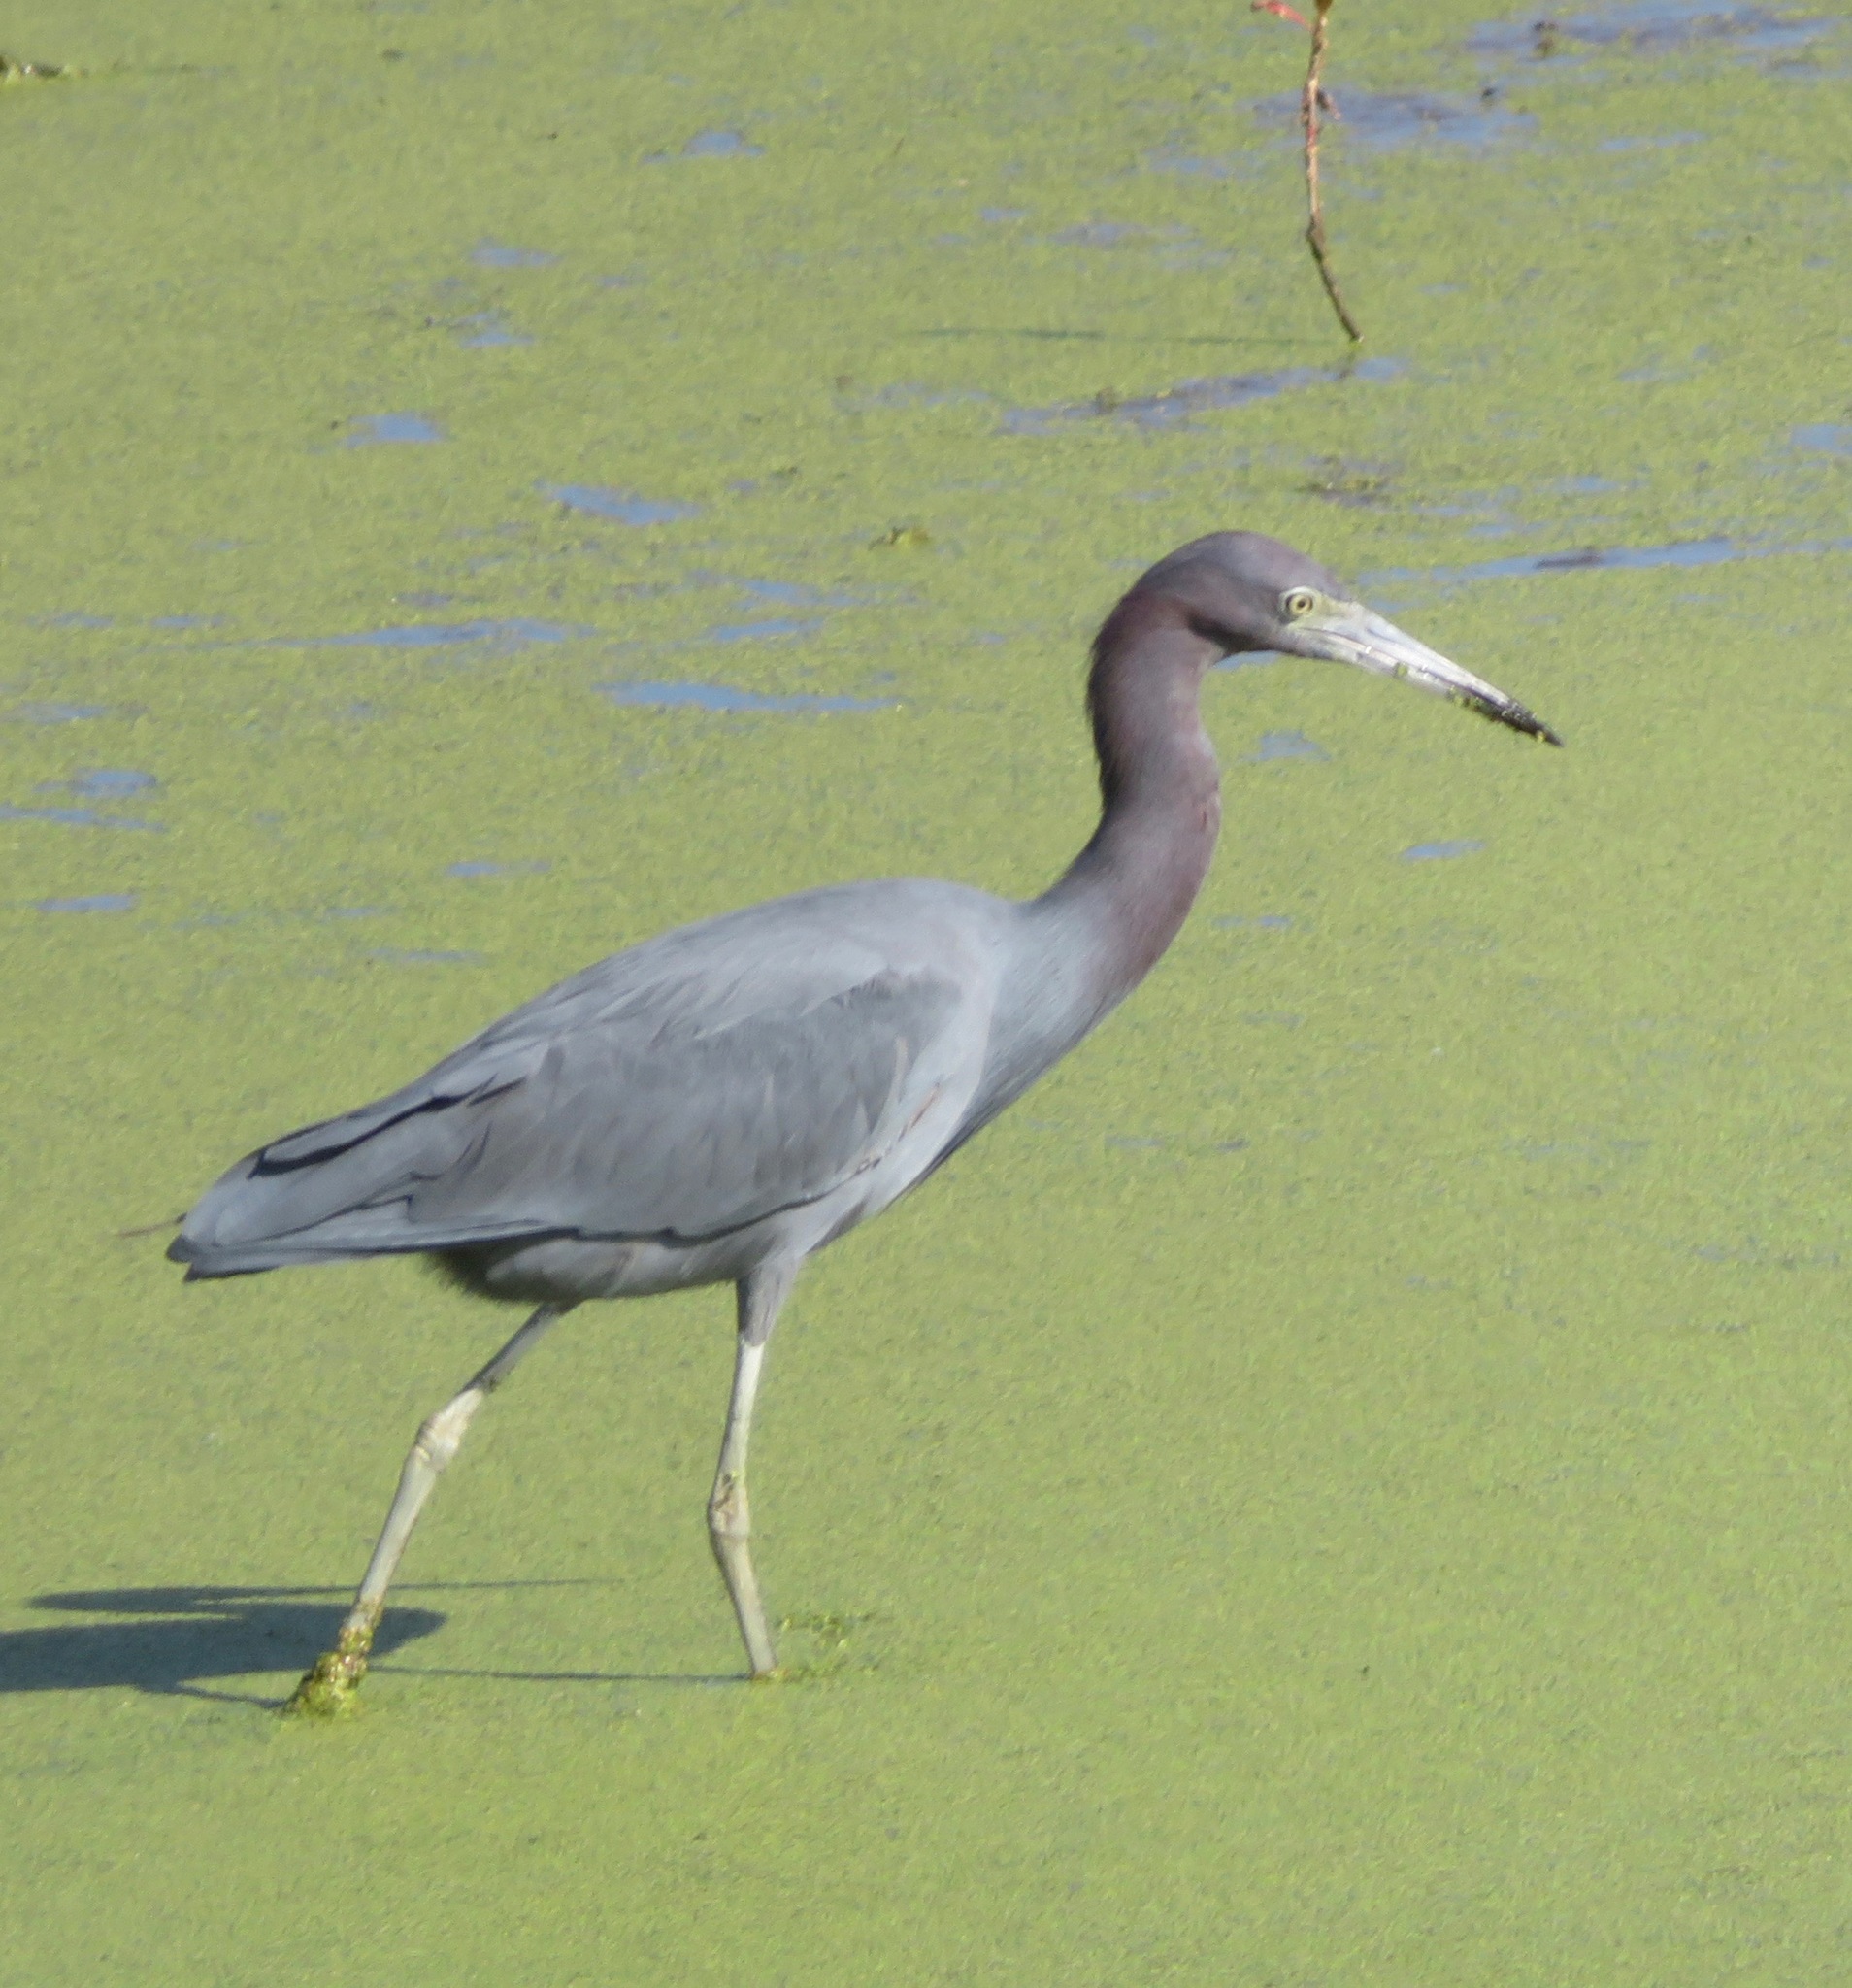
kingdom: Animalia
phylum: Chordata
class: Aves
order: Pelecaniformes
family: Ardeidae
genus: Egretta
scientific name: Egretta caerulea
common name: Little blue heron
